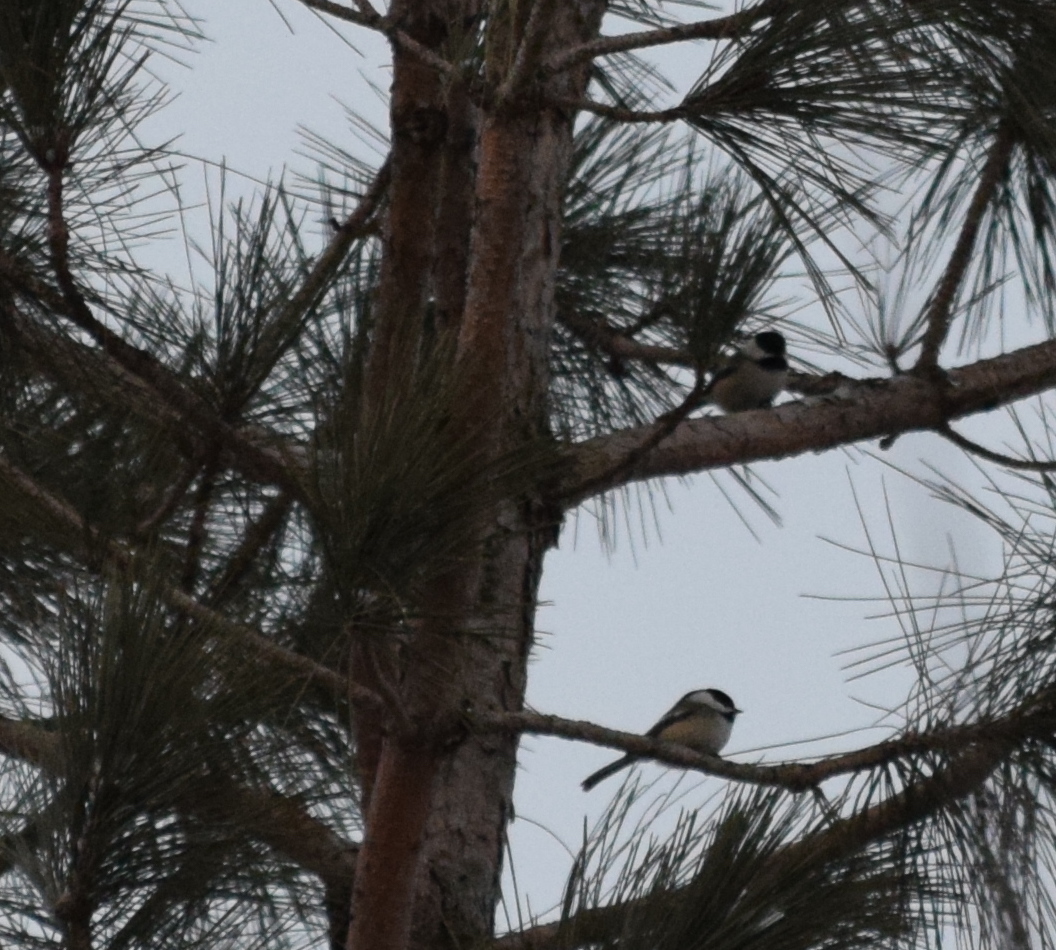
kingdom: Animalia
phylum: Chordata
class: Aves
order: Passeriformes
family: Paridae
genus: Poecile
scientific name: Poecile atricapillus
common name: Black-capped chickadee
